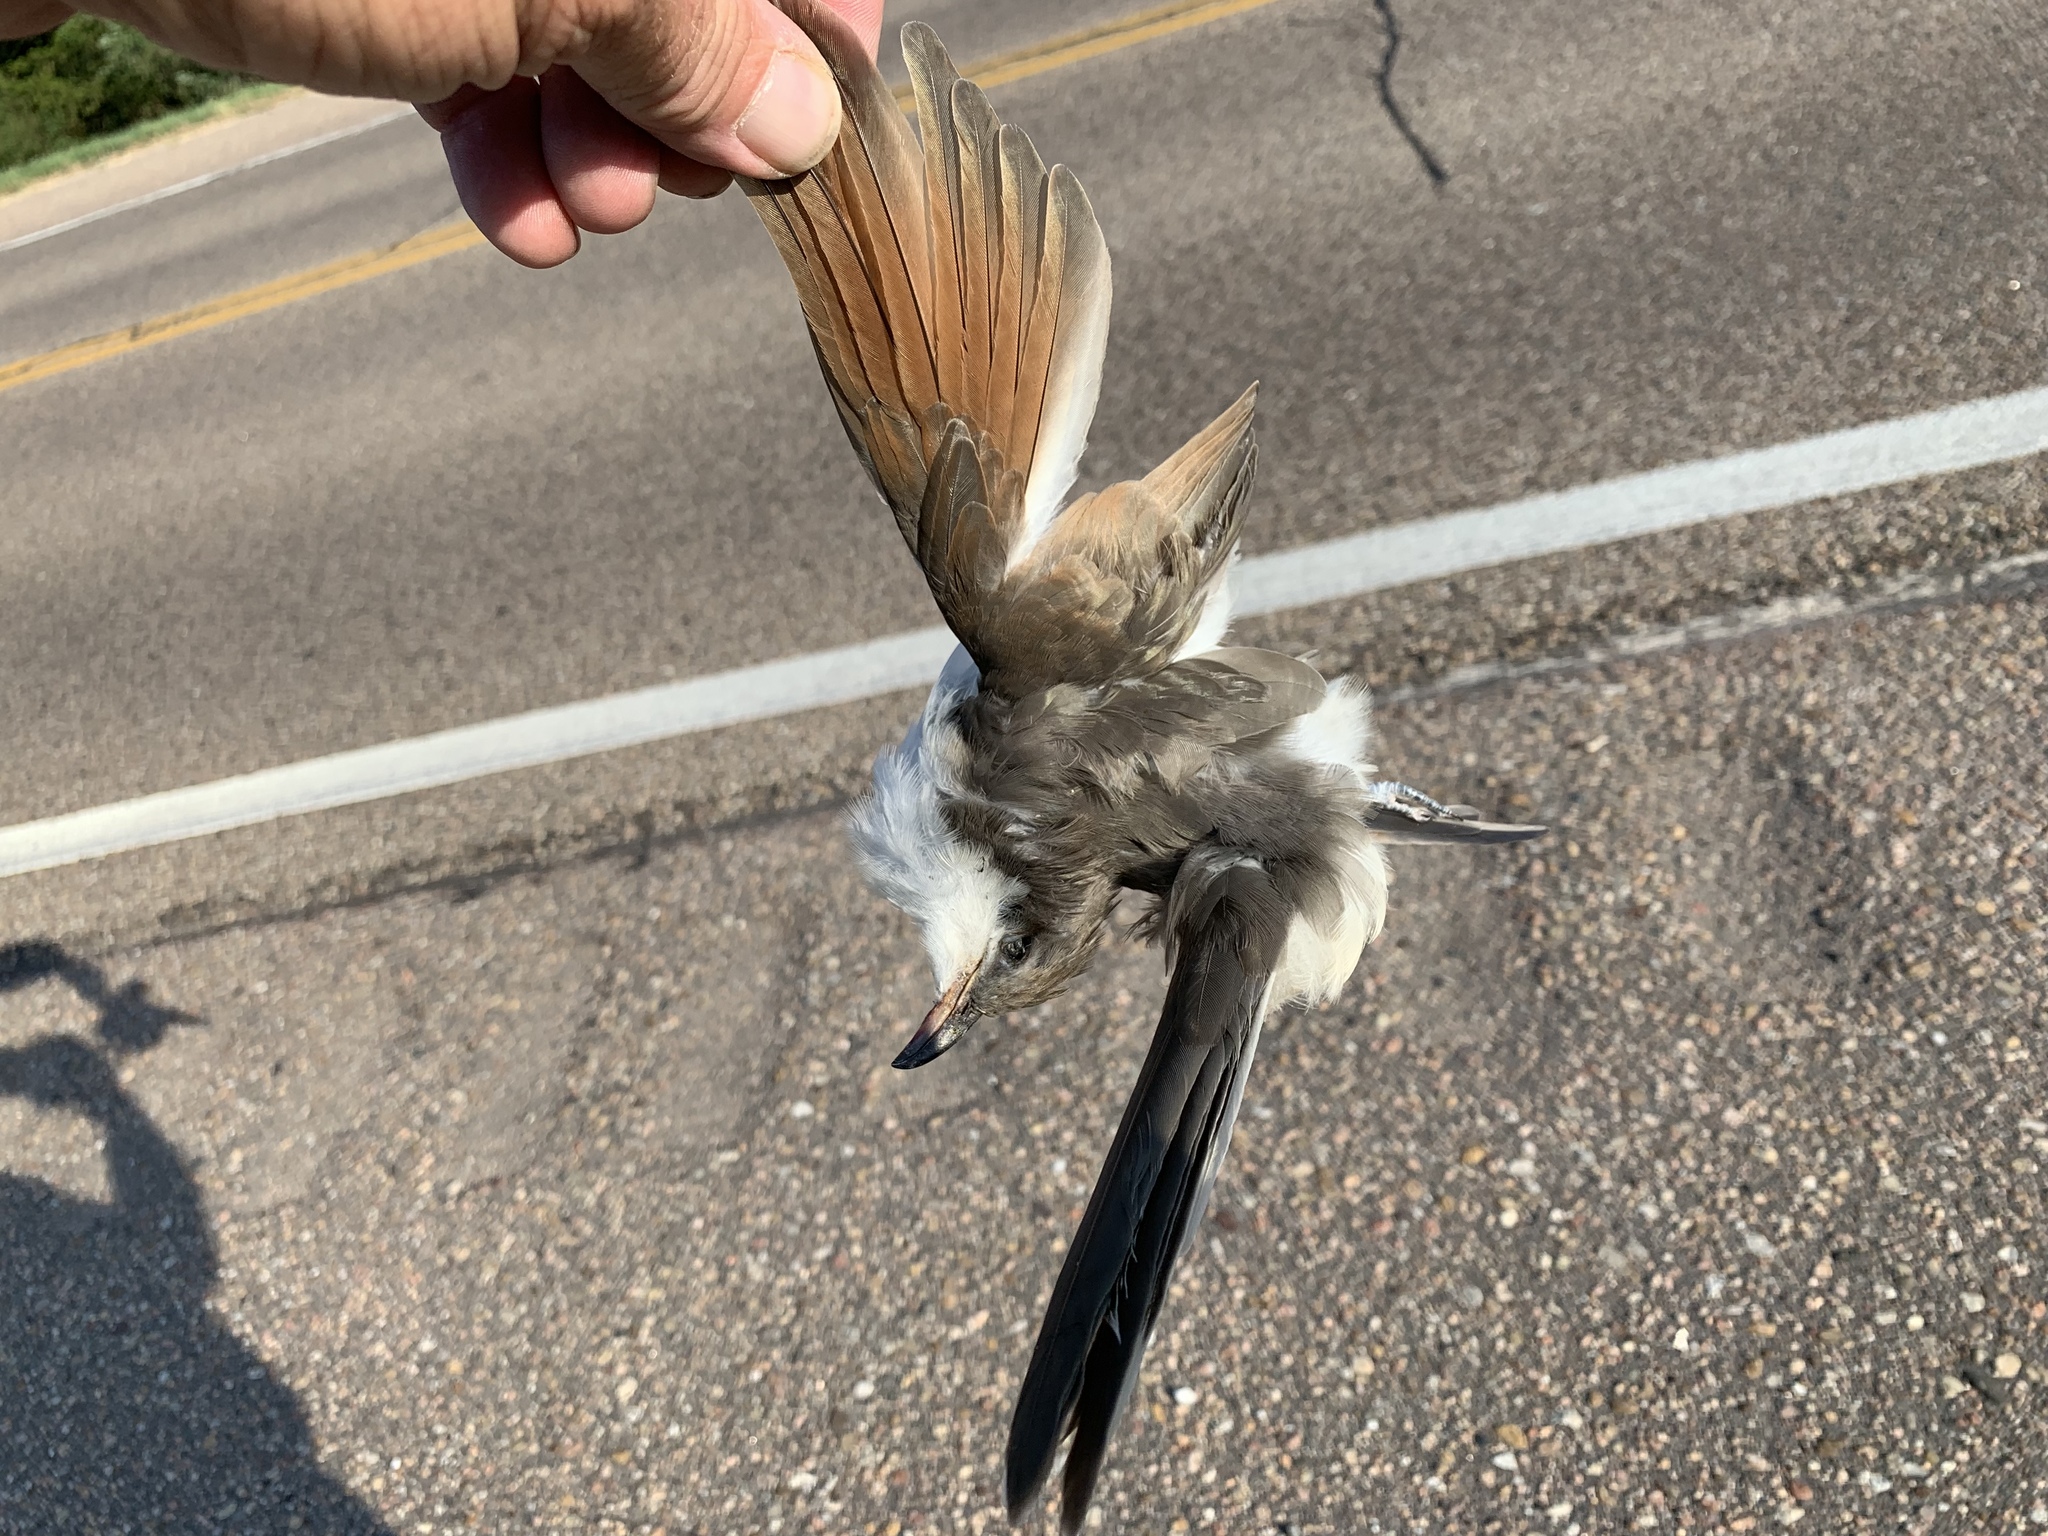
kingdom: Animalia
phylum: Chordata
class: Aves
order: Cuculiformes
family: Cuculidae
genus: Coccyzus
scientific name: Coccyzus americanus
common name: Yellow-billed cuckoo
